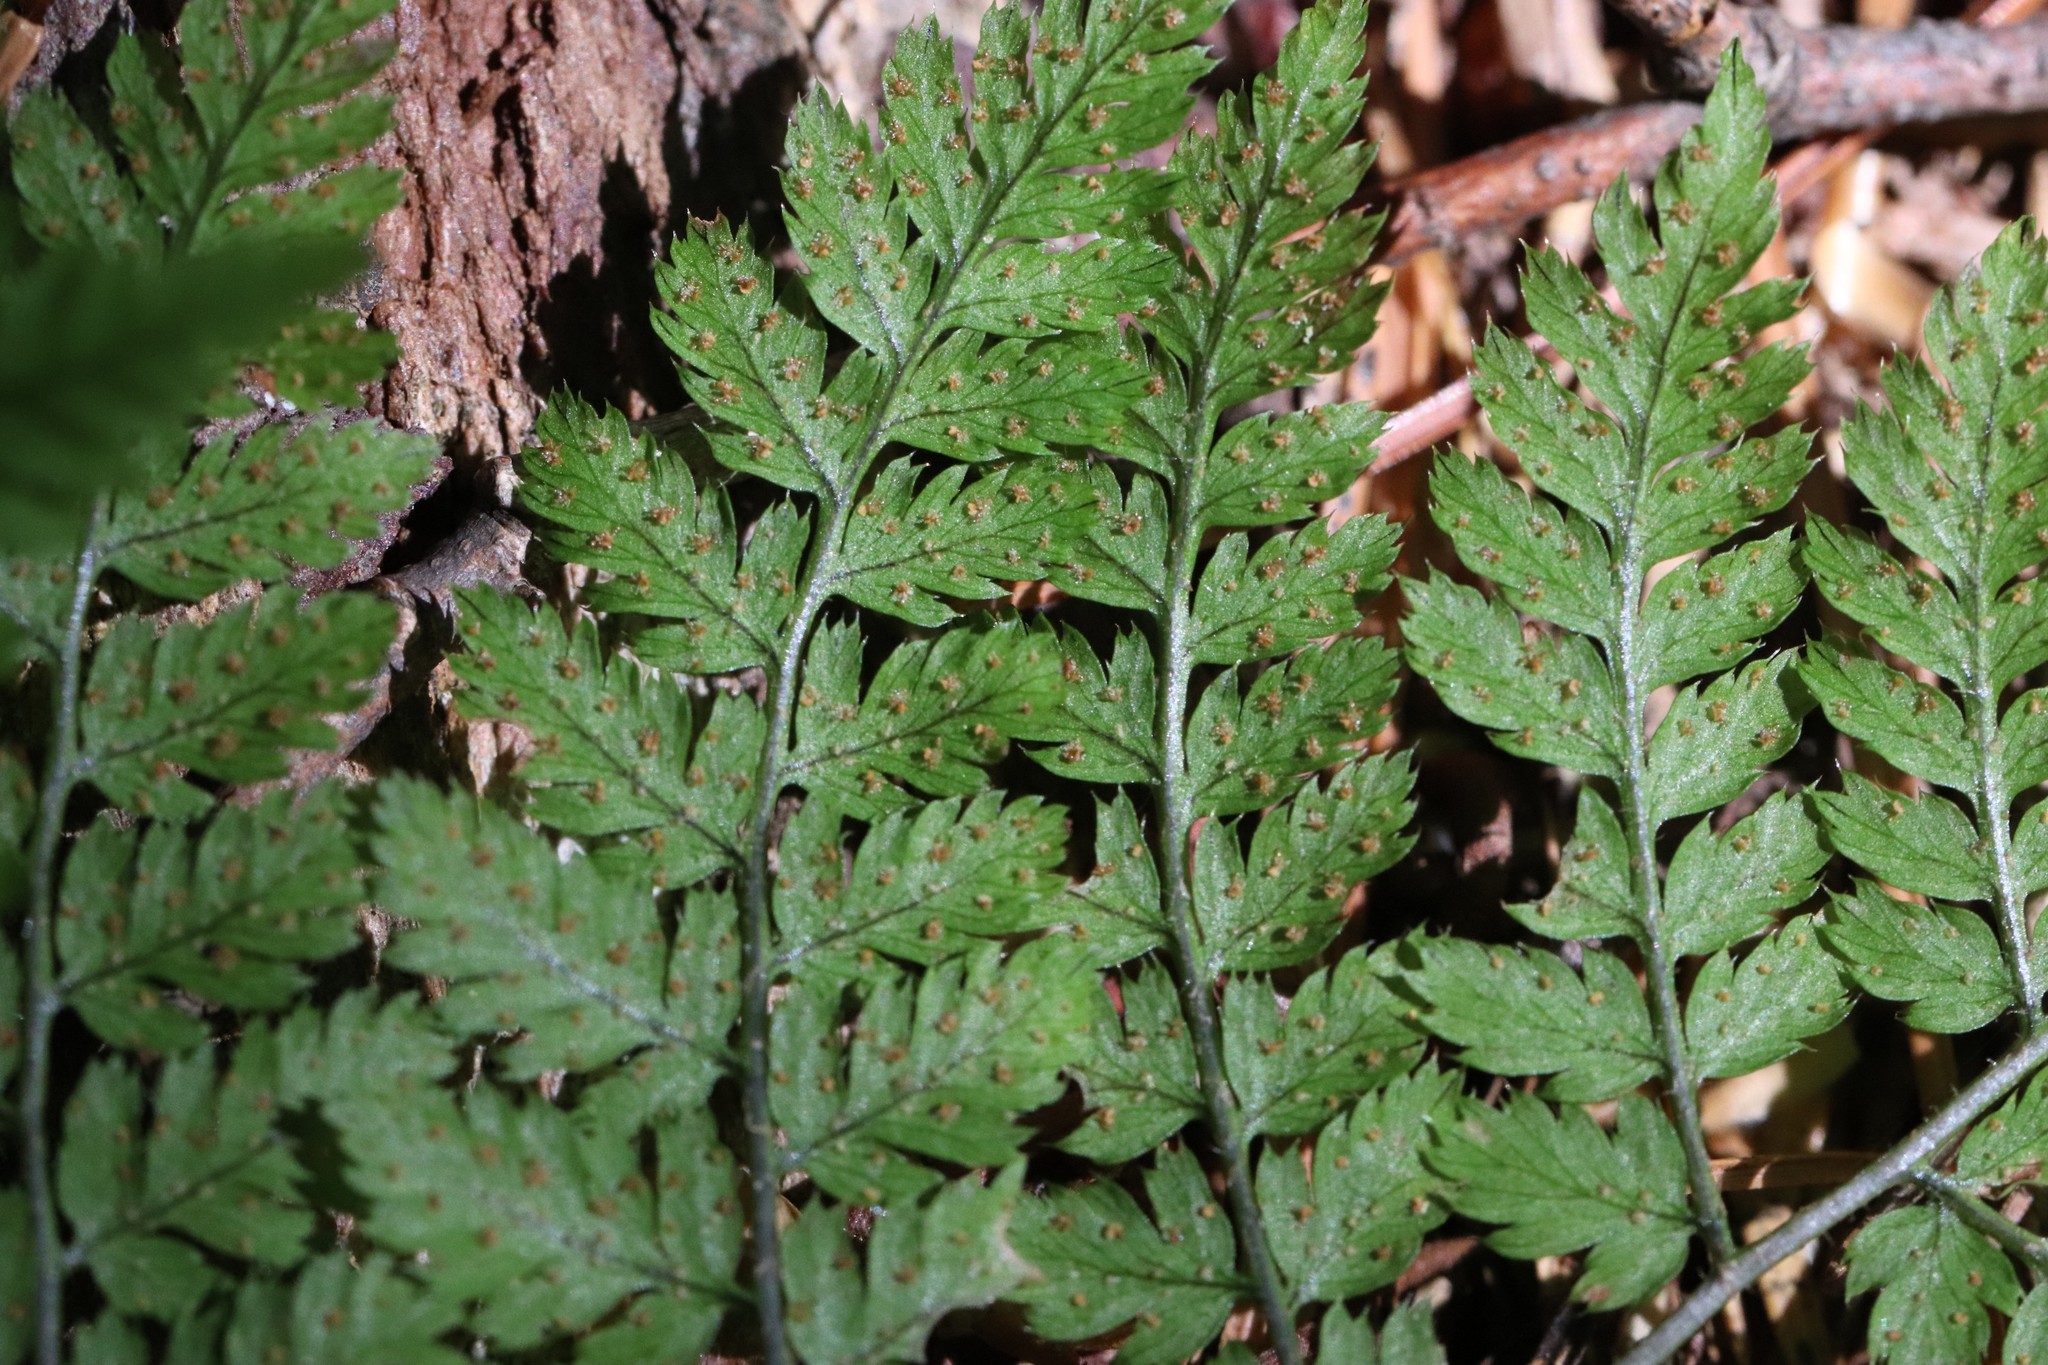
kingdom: Plantae
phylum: Tracheophyta
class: Polypodiopsida
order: Polypodiales
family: Dryopteridaceae
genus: Dryopteris
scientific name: Dryopteris amurensis
